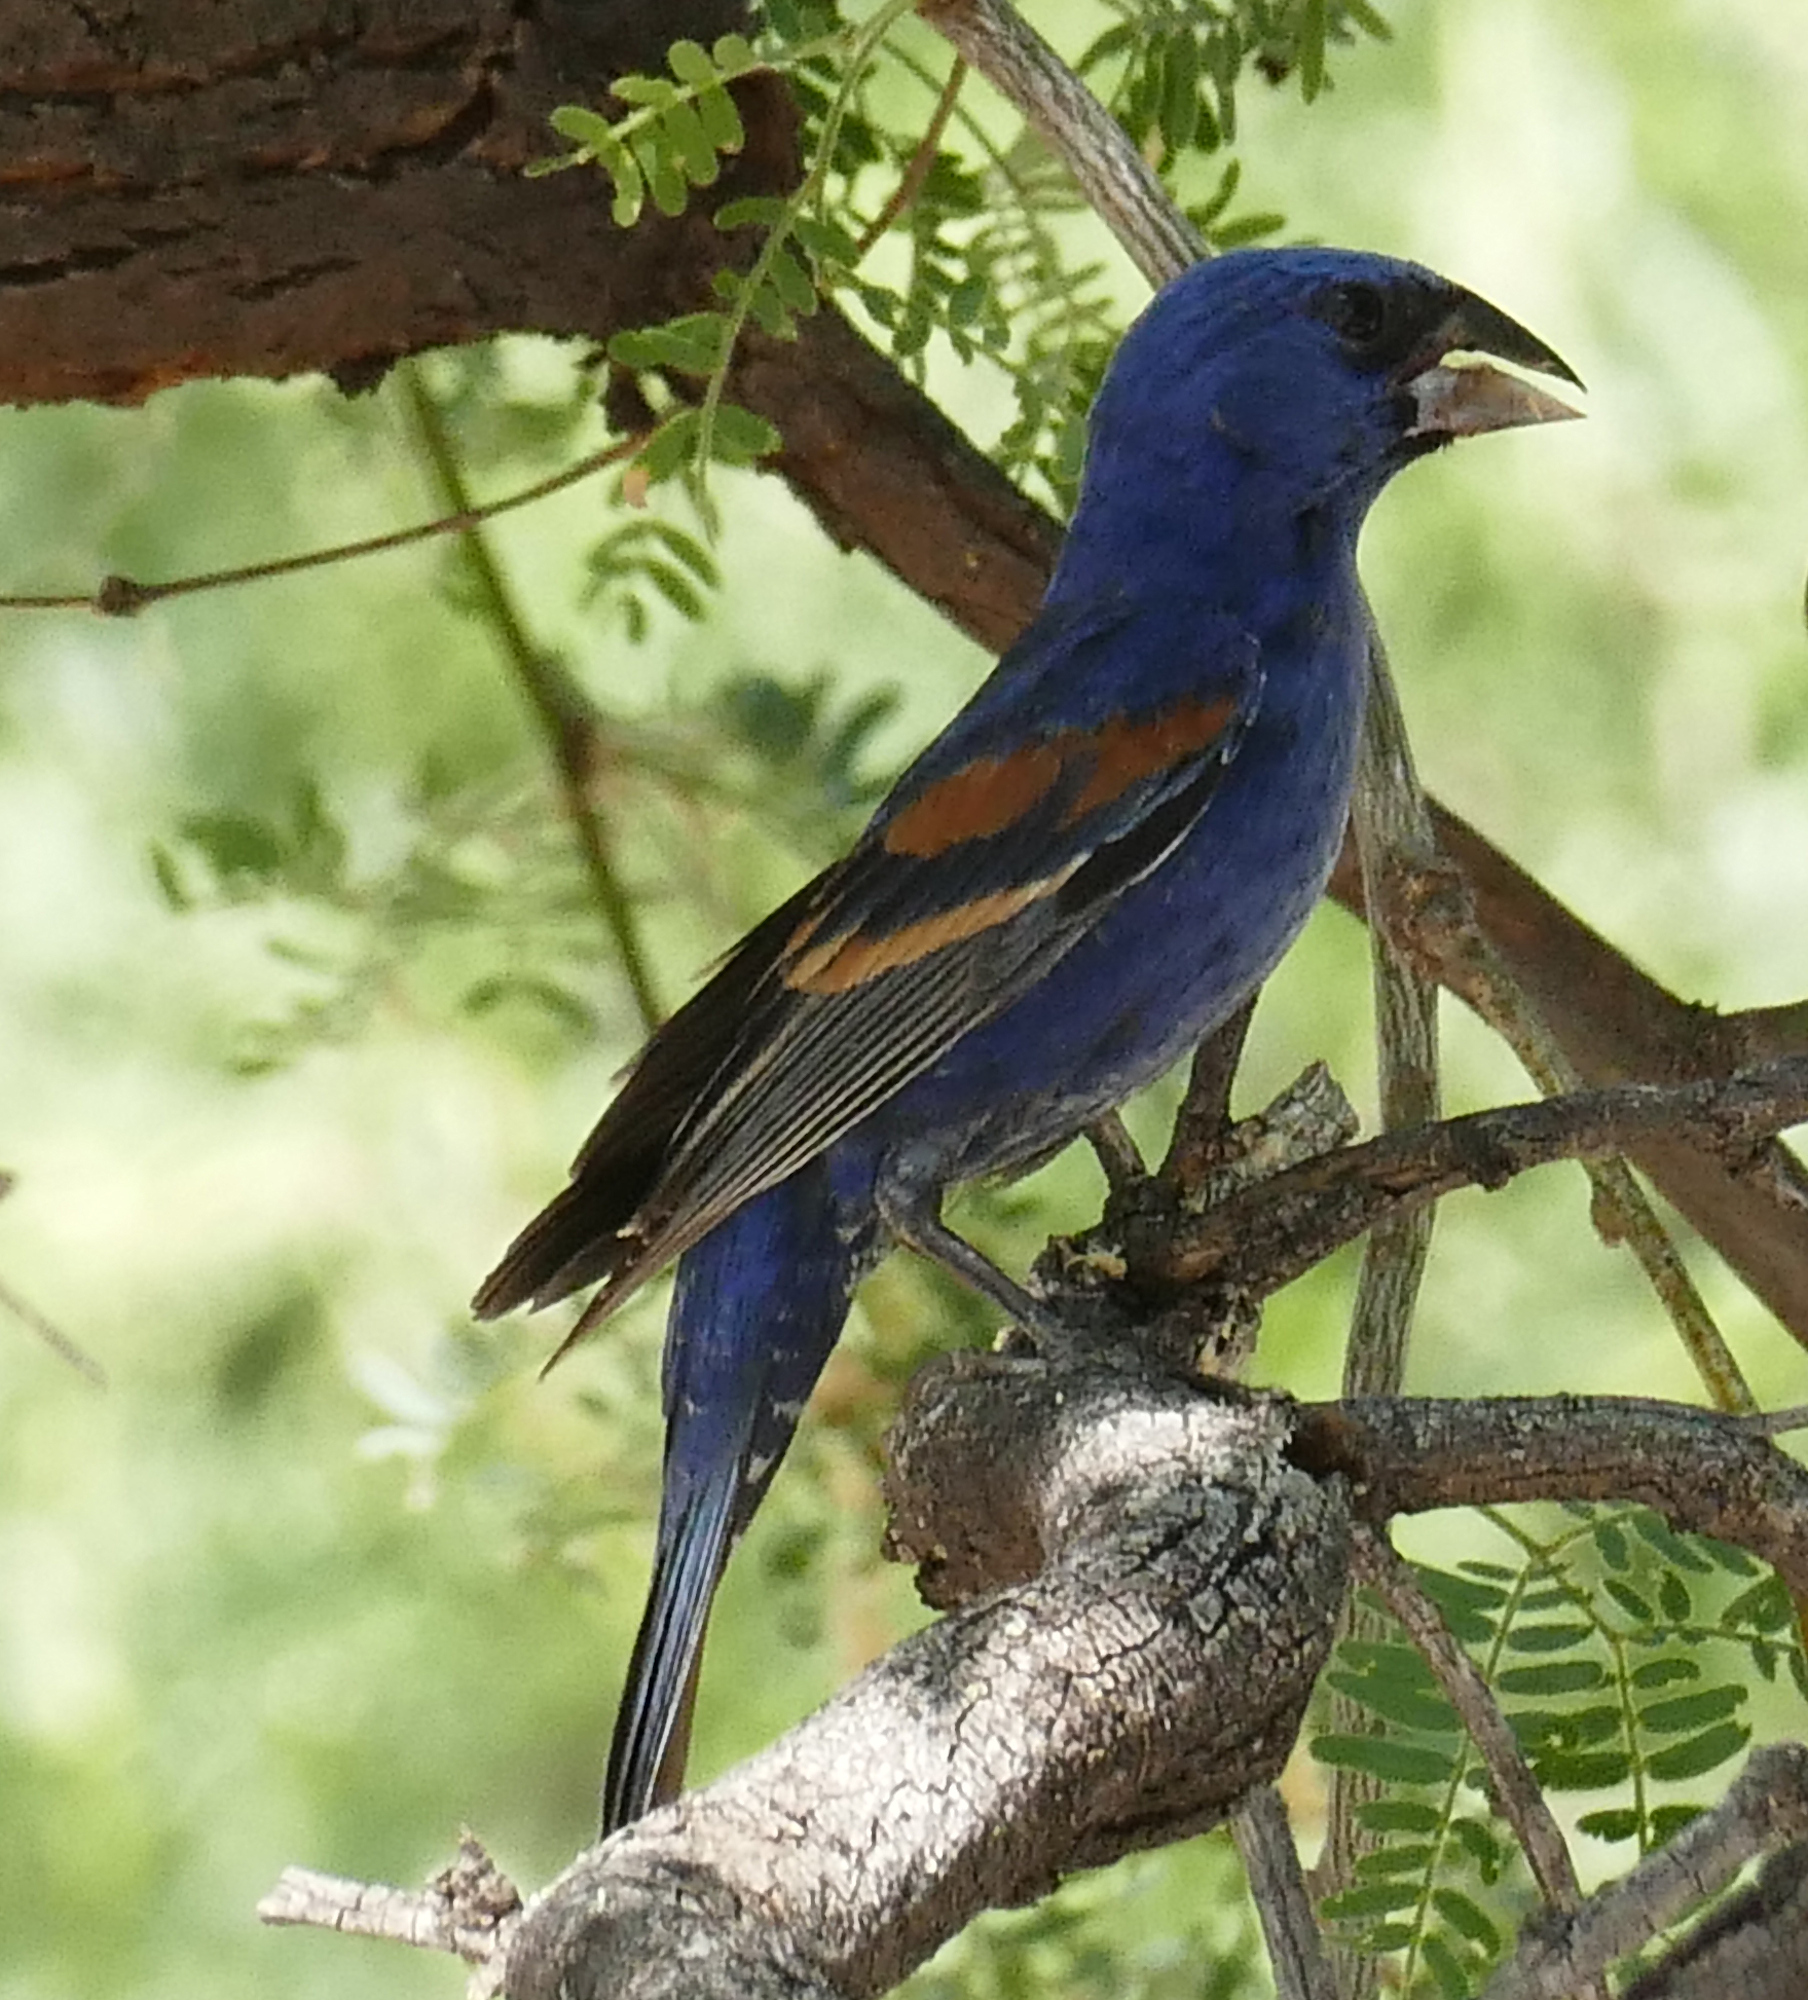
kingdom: Animalia
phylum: Chordata
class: Aves
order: Passeriformes
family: Cardinalidae
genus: Passerina
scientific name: Passerina caerulea
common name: Blue grosbeak
